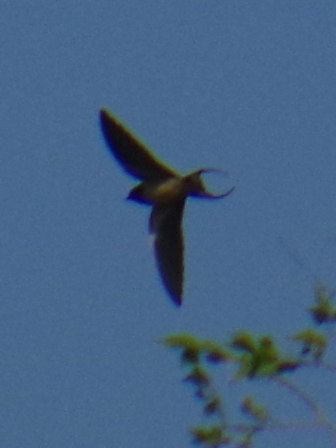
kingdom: Animalia
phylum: Chordata
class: Aves
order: Passeriformes
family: Hirundinidae
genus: Hirundo
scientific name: Hirundo rustica
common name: Barn swallow
